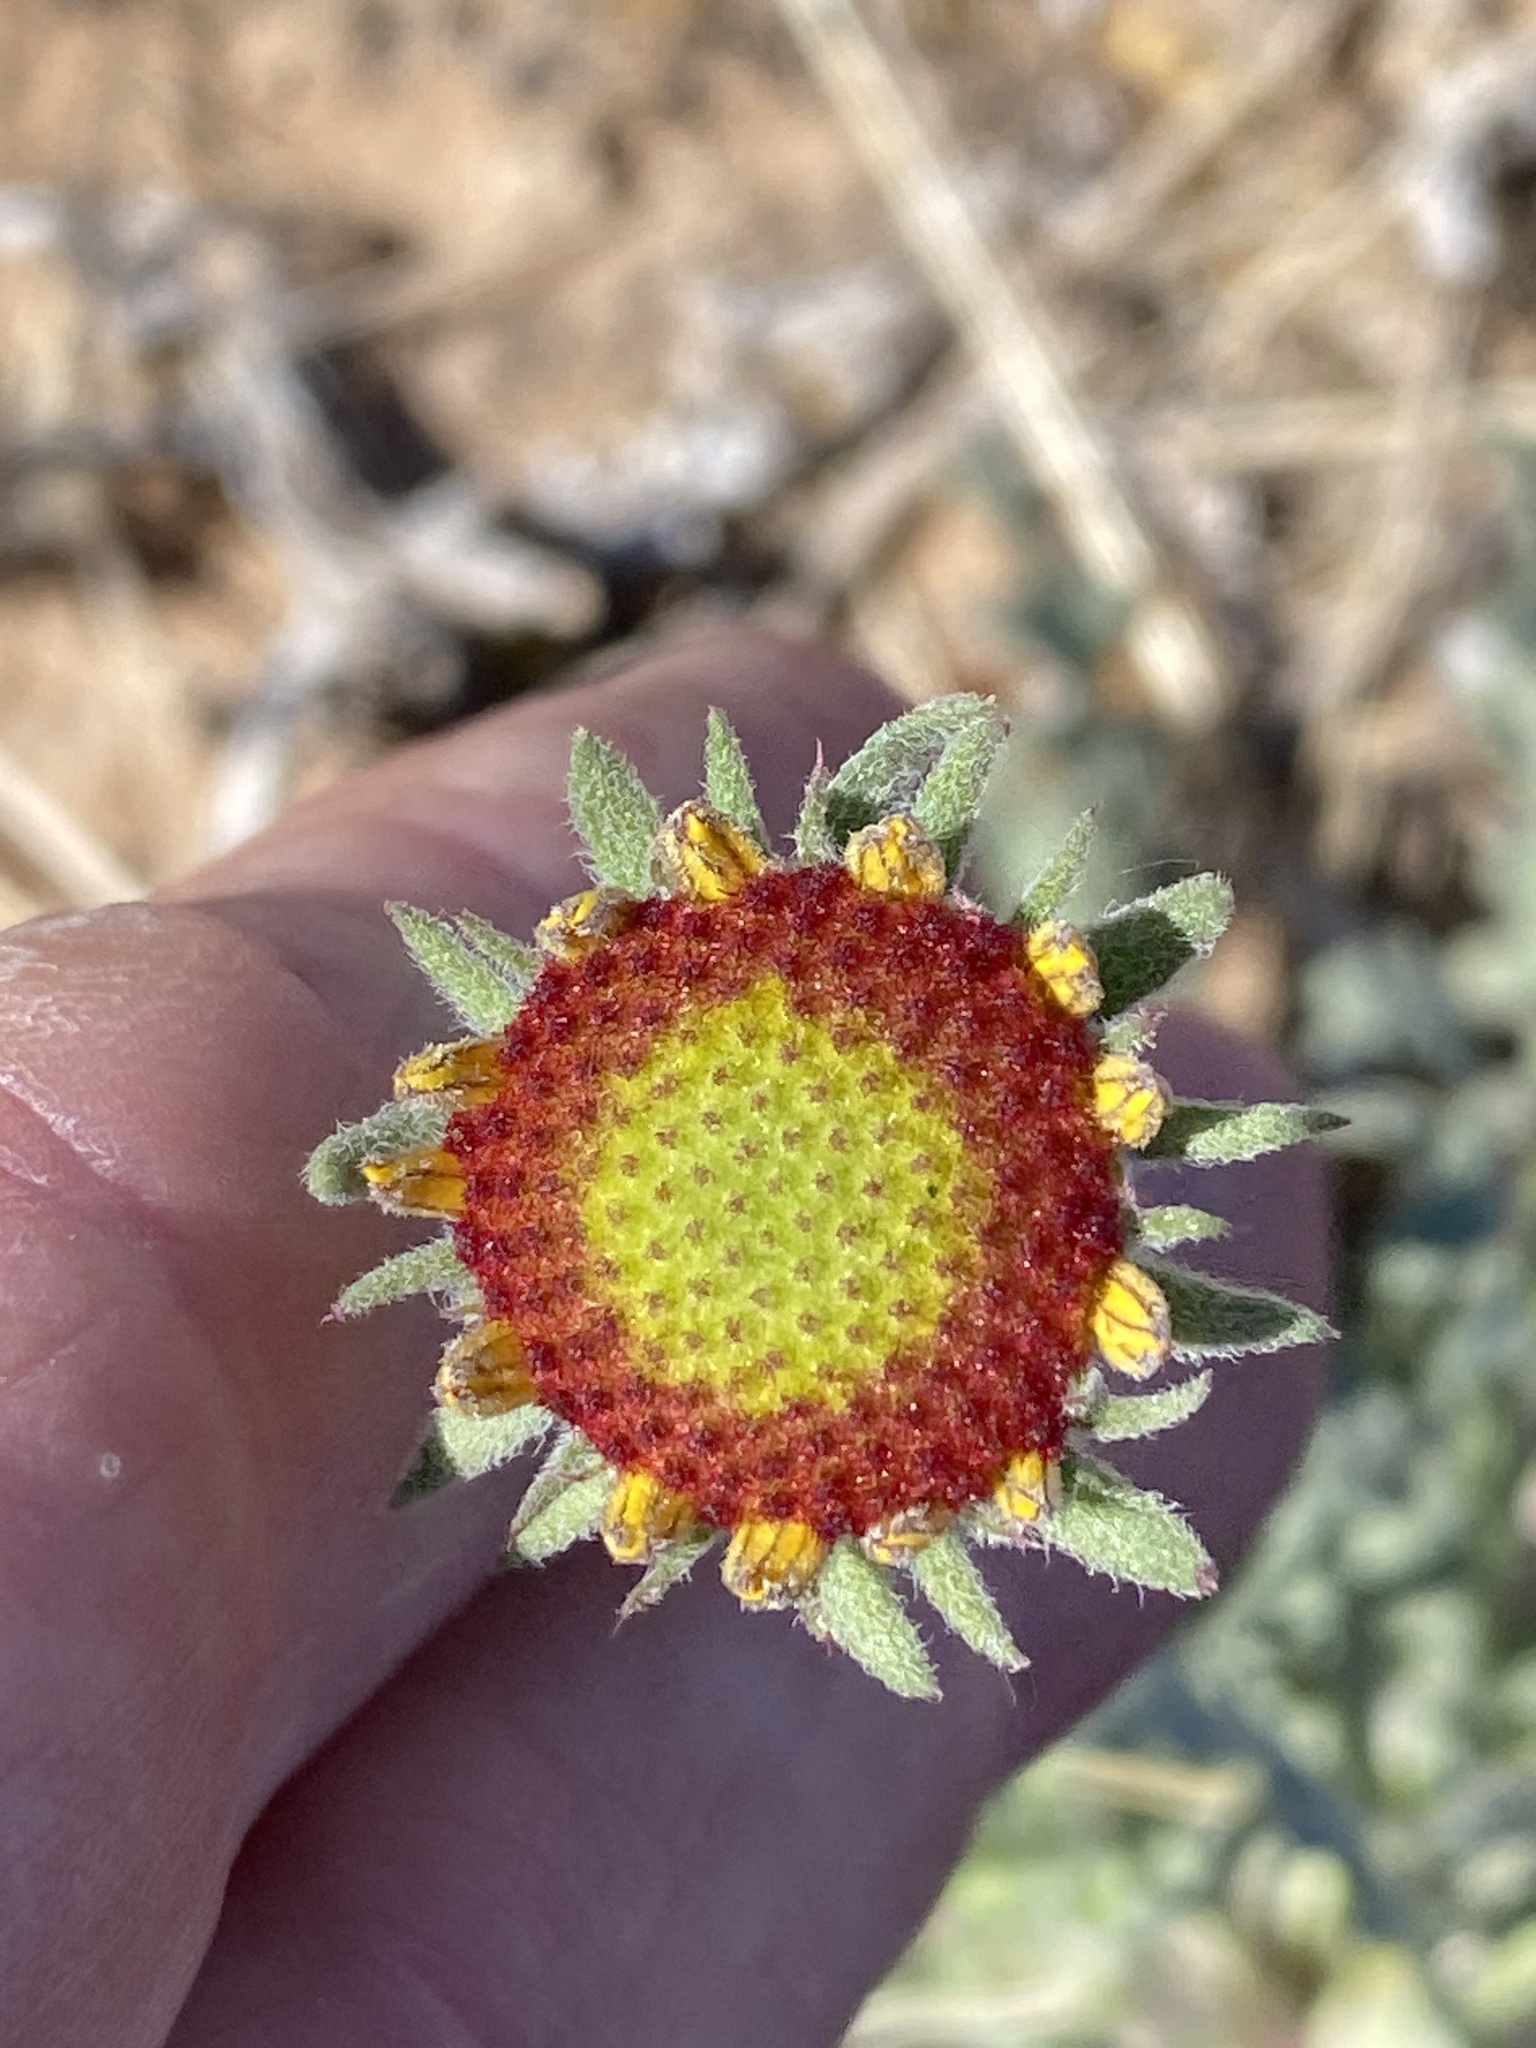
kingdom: Plantae
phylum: Tracheophyta
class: Magnoliopsida
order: Asterales
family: Asteraceae
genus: Gaillardia
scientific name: Gaillardia pinnatifida
